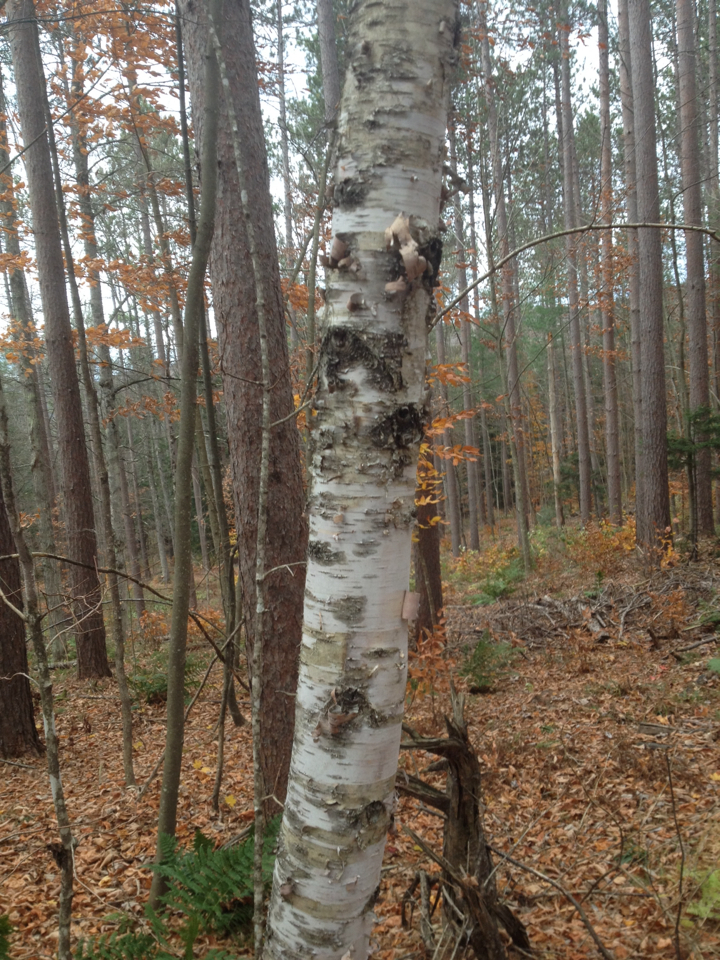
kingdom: Plantae
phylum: Tracheophyta
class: Magnoliopsida
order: Fagales
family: Betulaceae
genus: Betula
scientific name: Betula papyrifera
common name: Paper birch
